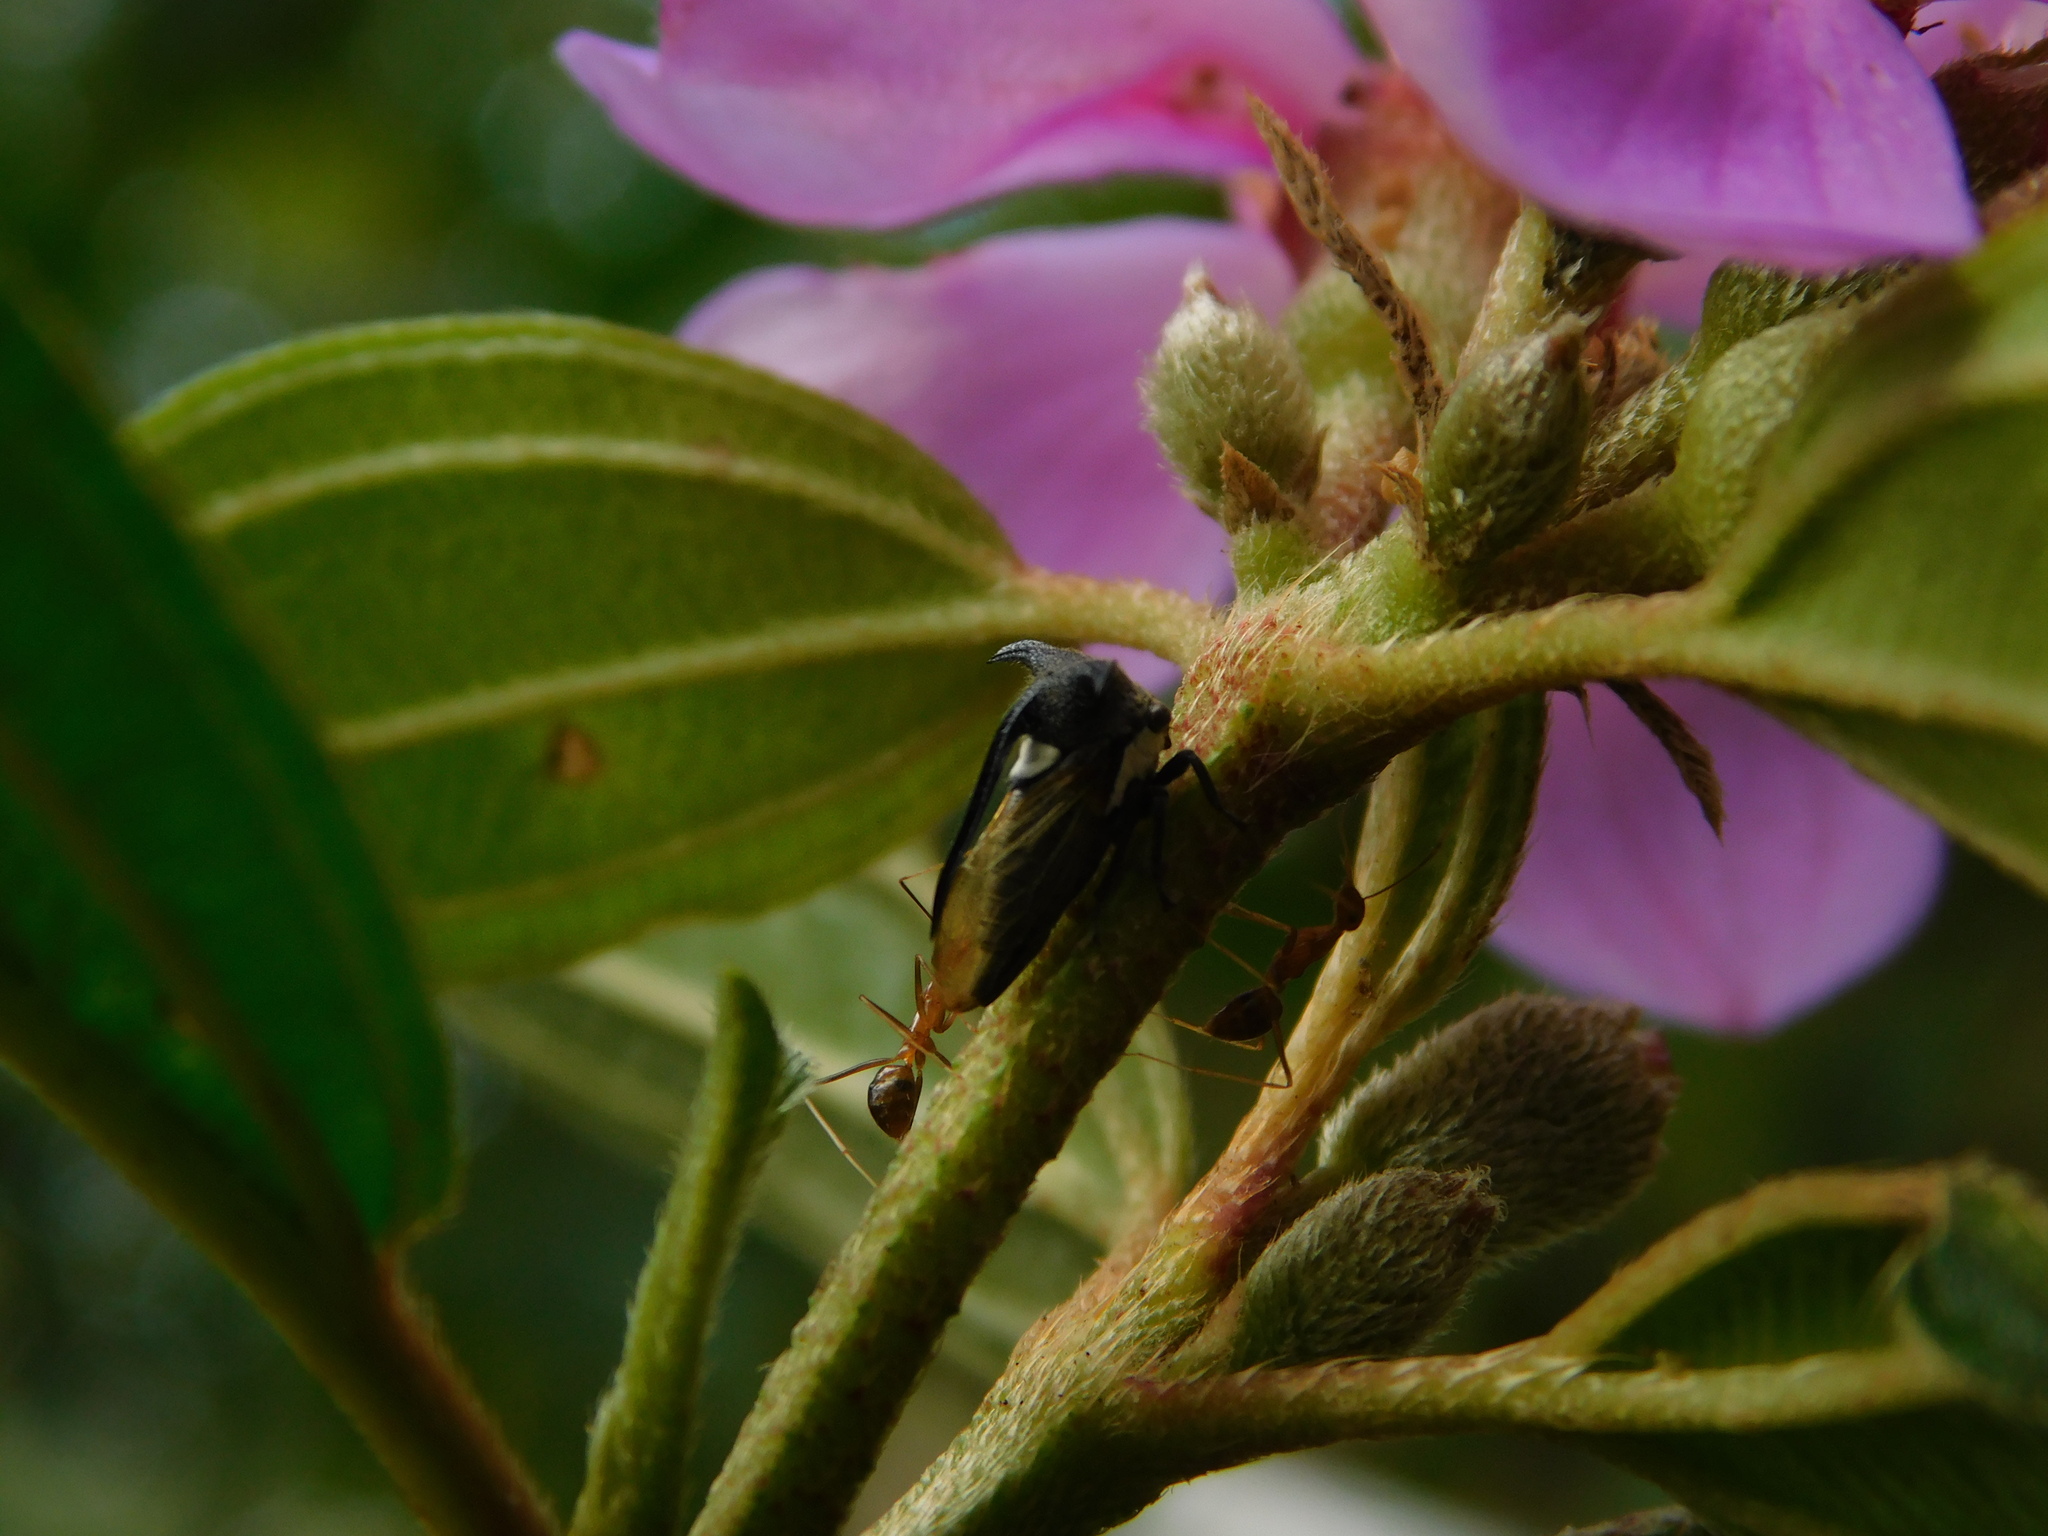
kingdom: Animalia
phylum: Arthropoda
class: Insecta
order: Hymenoptera
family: Formicidae
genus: Anoplolepis
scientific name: Anoplolepis gracilipes
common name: Ant
